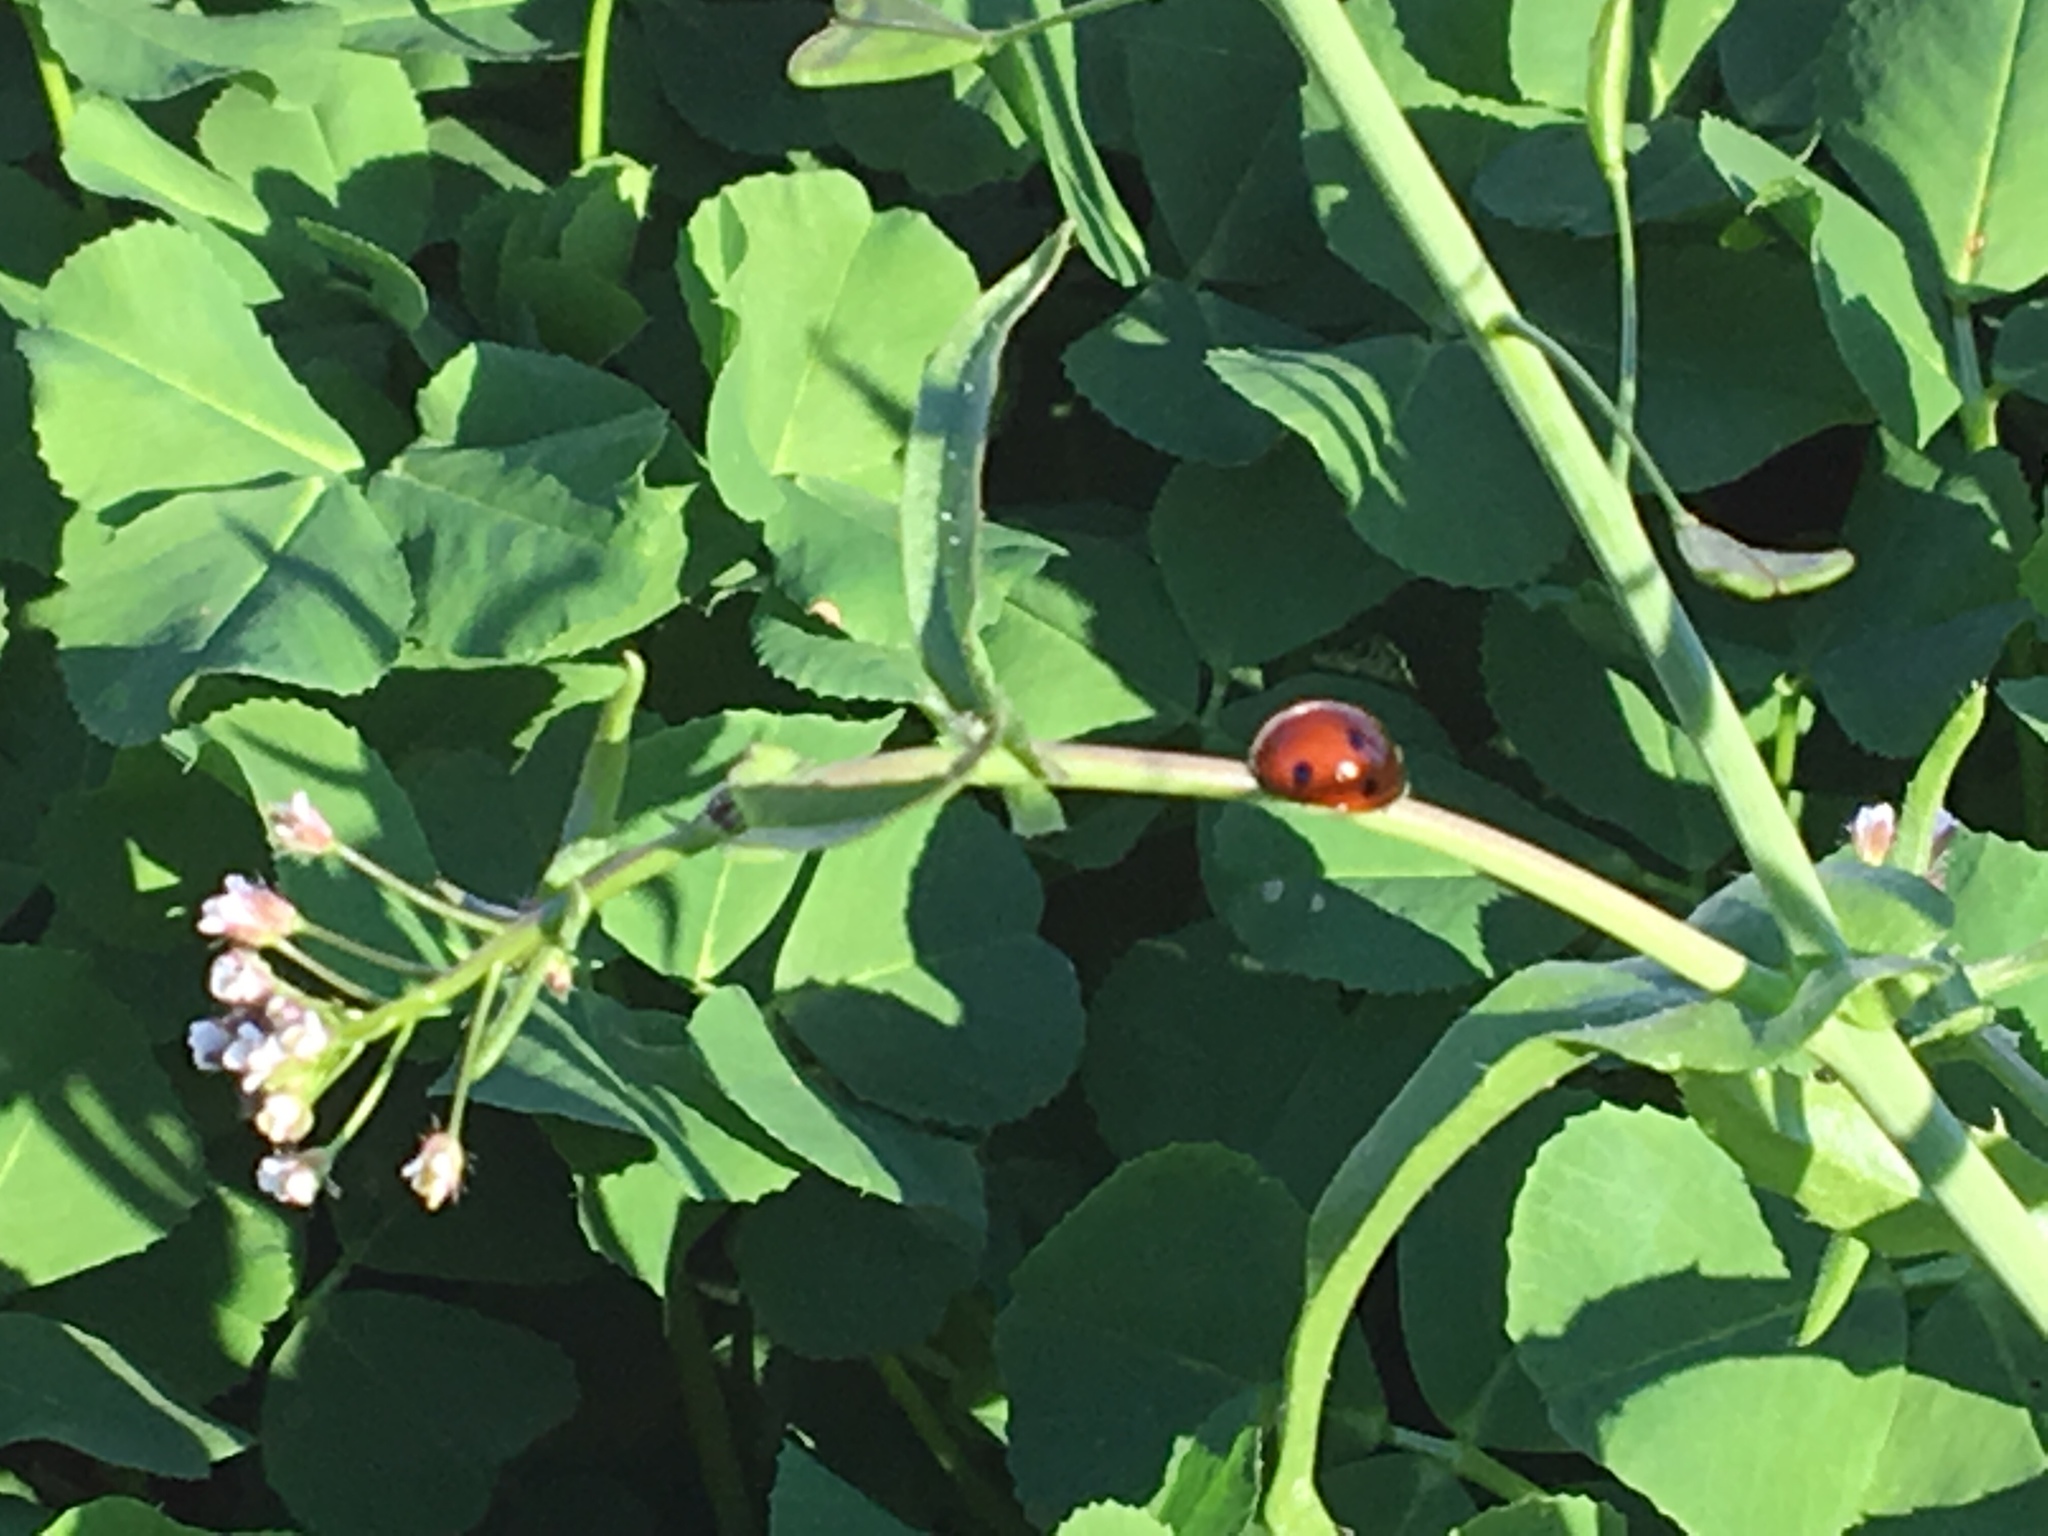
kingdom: Animalia
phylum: Arthropoda
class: Insecta
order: Coleoptera
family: Coccinellidae
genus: Coccinella
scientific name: Coccinella septempunctata
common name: Sevenspotted lady beetle
